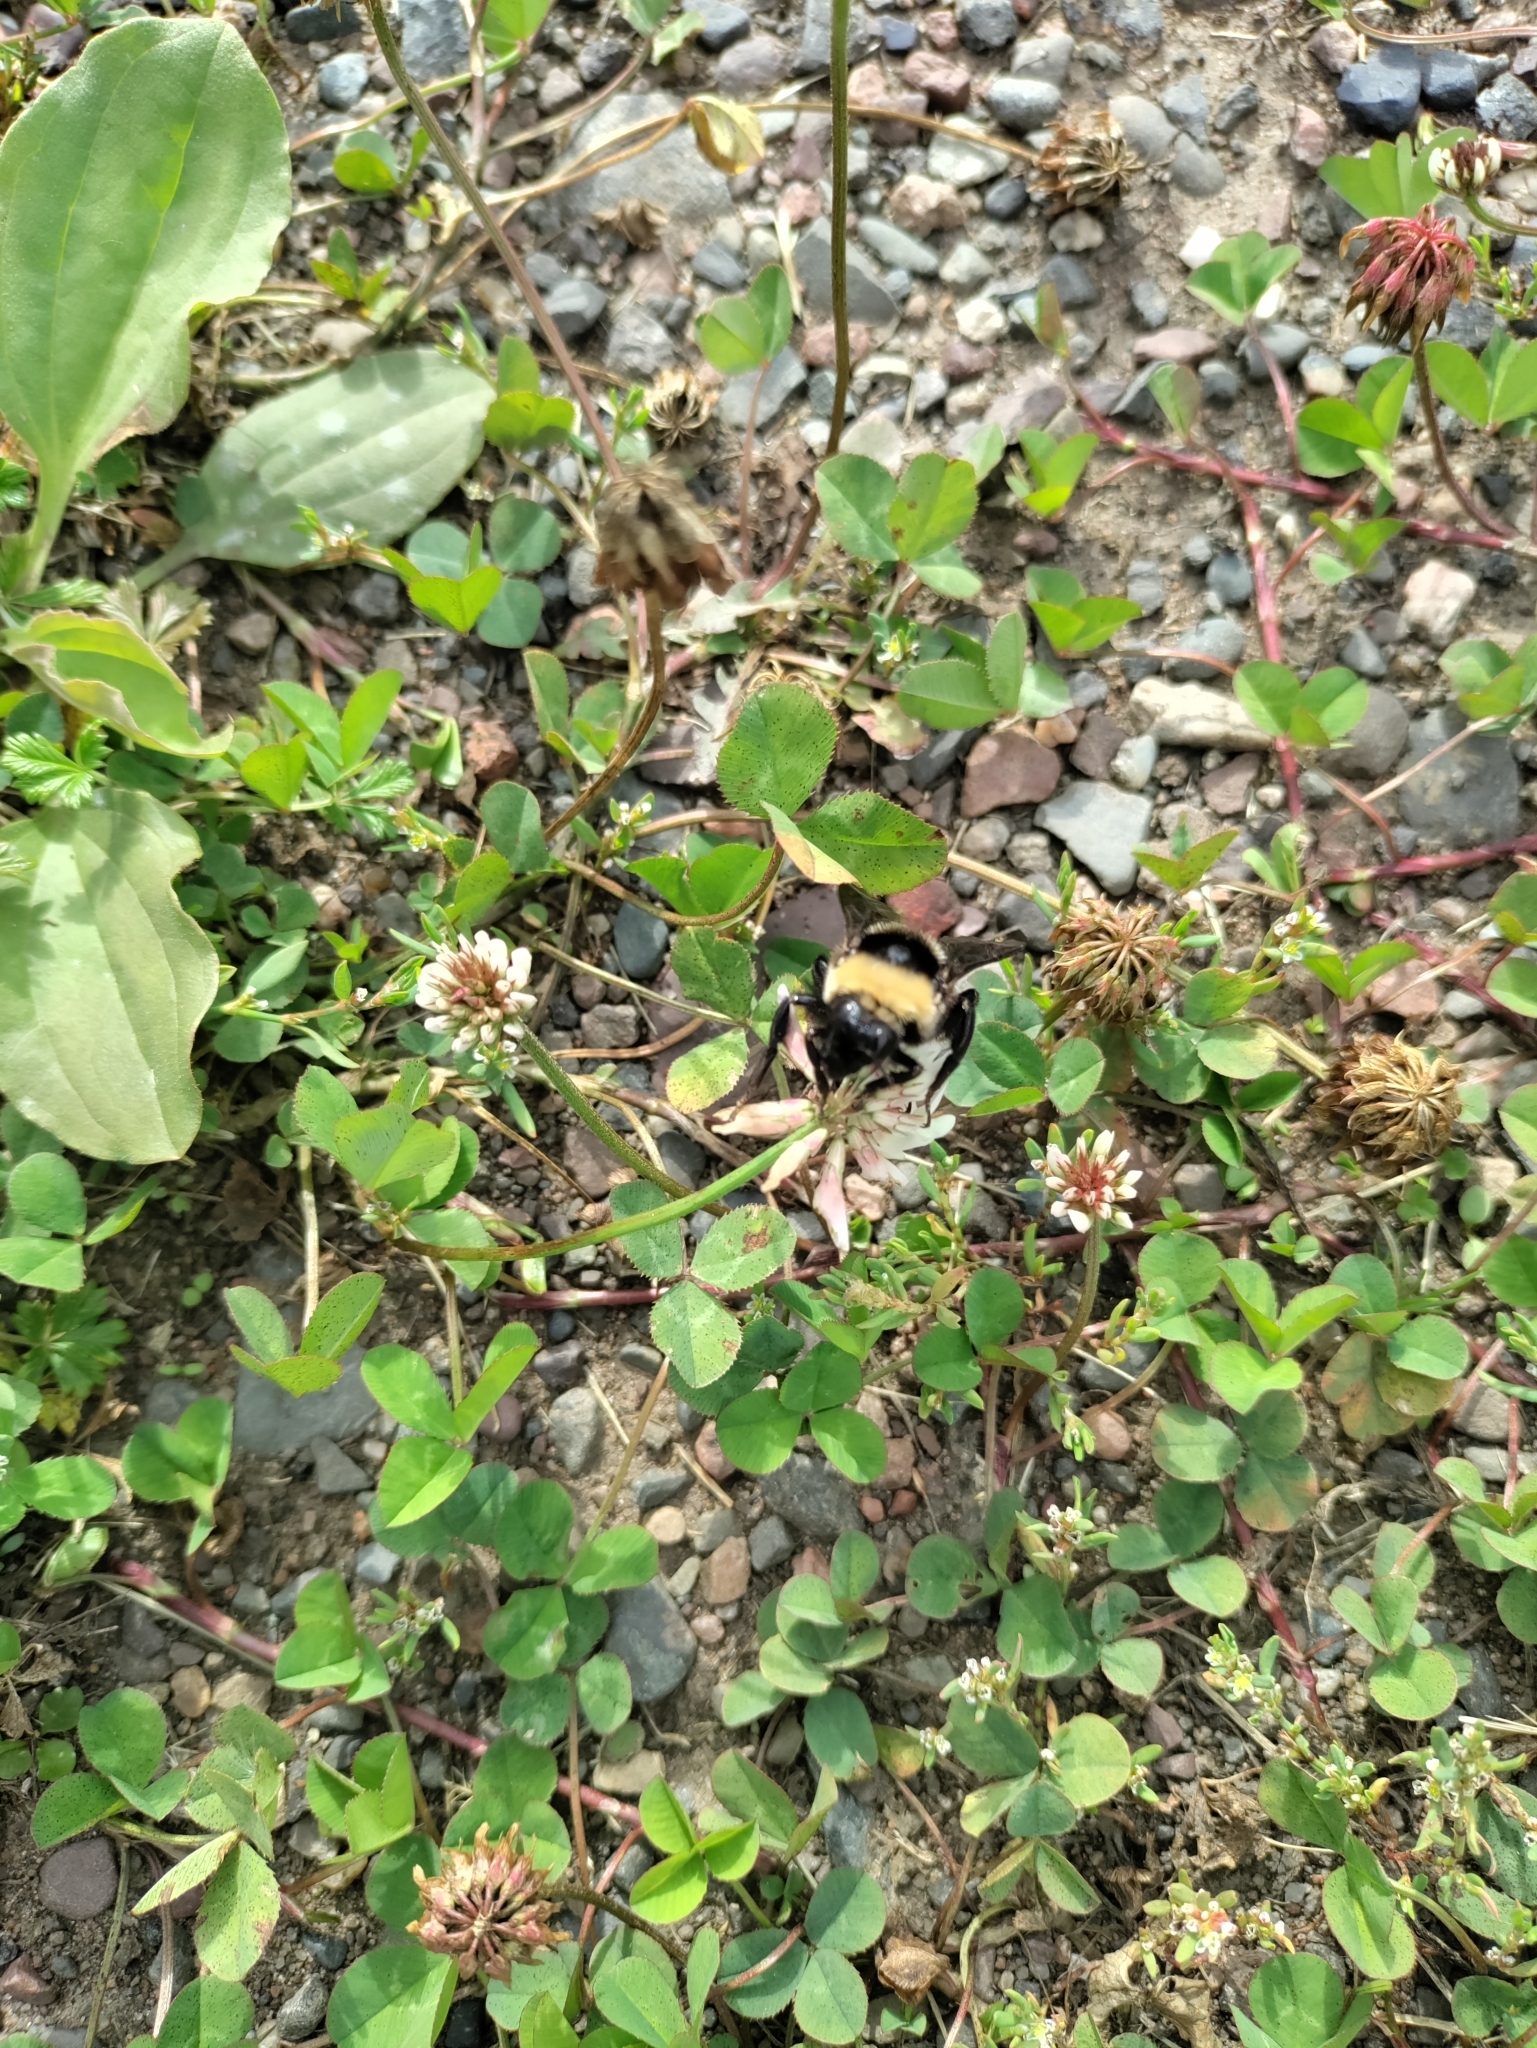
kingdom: Animalia
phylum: Arthropoda
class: Insecta
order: Hymenoptera
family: Apidae
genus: Bombus
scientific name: Bombus auricomus
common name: Black and gold bumble bee
